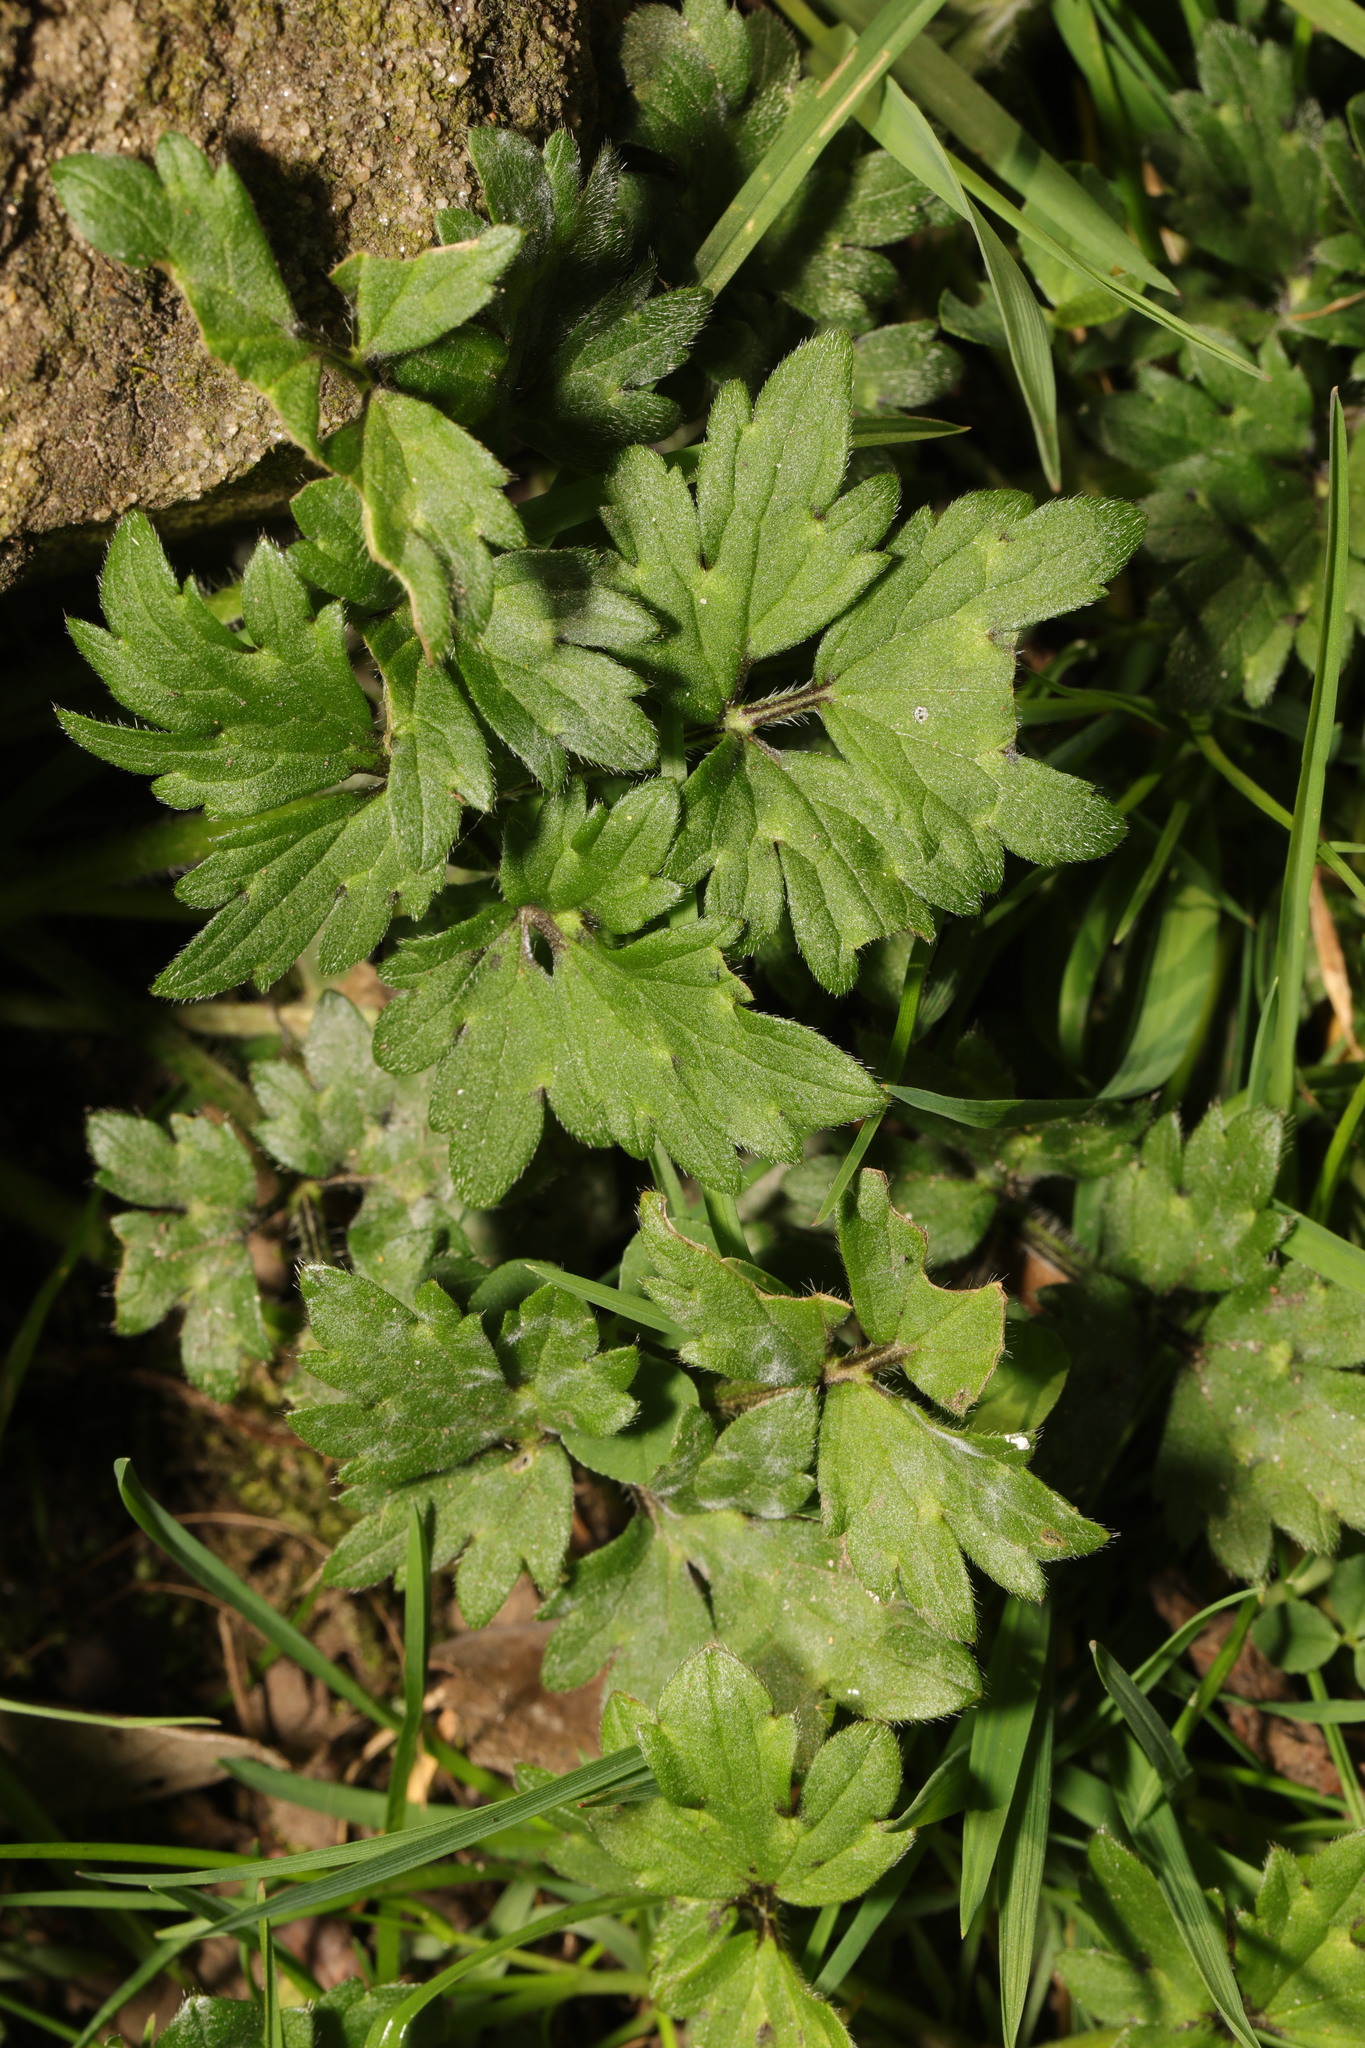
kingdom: Plantae
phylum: Tracheophyta
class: Magnoliopsida
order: Ranunculales
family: Ranunculaceae
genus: Ranunculus
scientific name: Ranunculus repens
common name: Creeping buttercup
